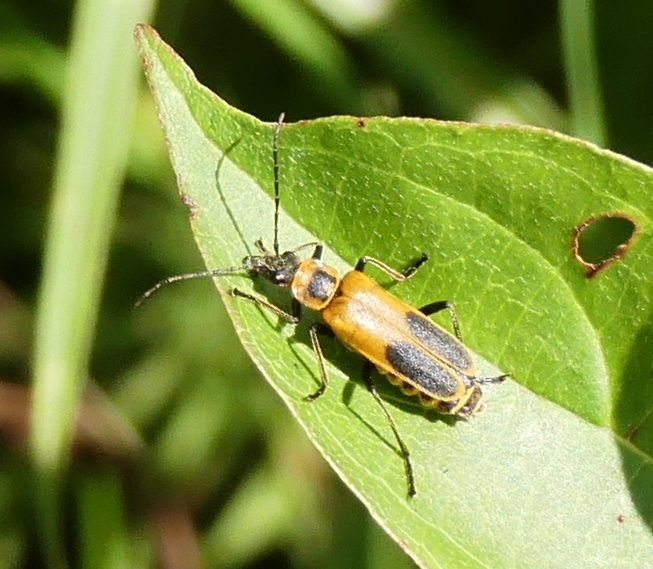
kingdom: Animalia
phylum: Arthropoda
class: Insecta
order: Coleoptera
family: Cantharidae
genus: Chauliognathus
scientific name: Chauliognathus pensylvanicus
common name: Goldenrod soldier beetle
